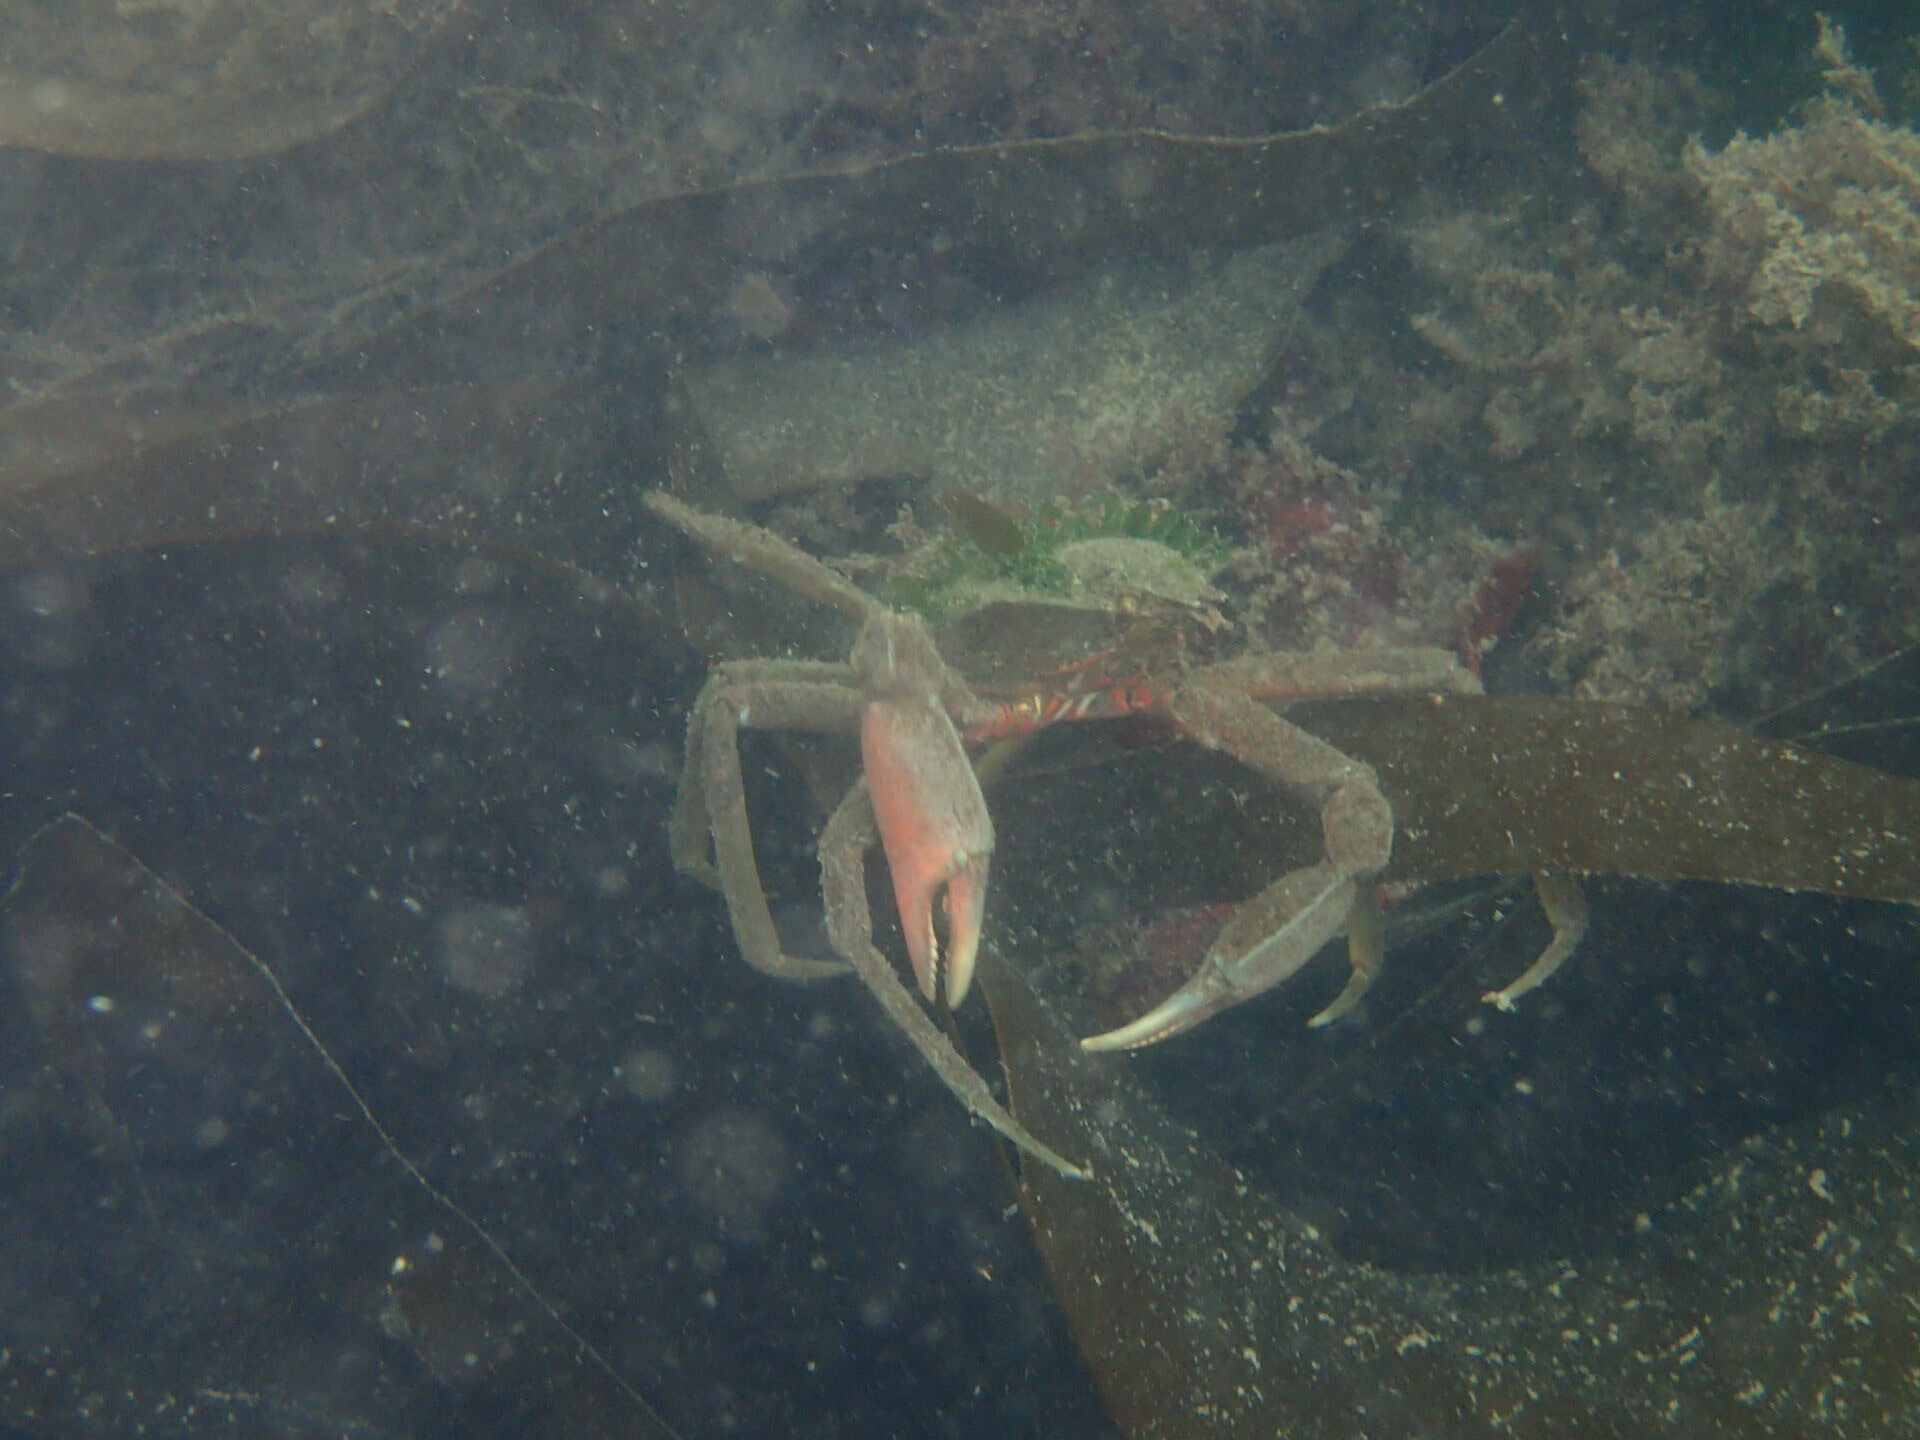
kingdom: Animalia
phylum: Arthropoda
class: Malacostraca
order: Decapoda
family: Epialtidae
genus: Pugettia
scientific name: Pugettia producta
